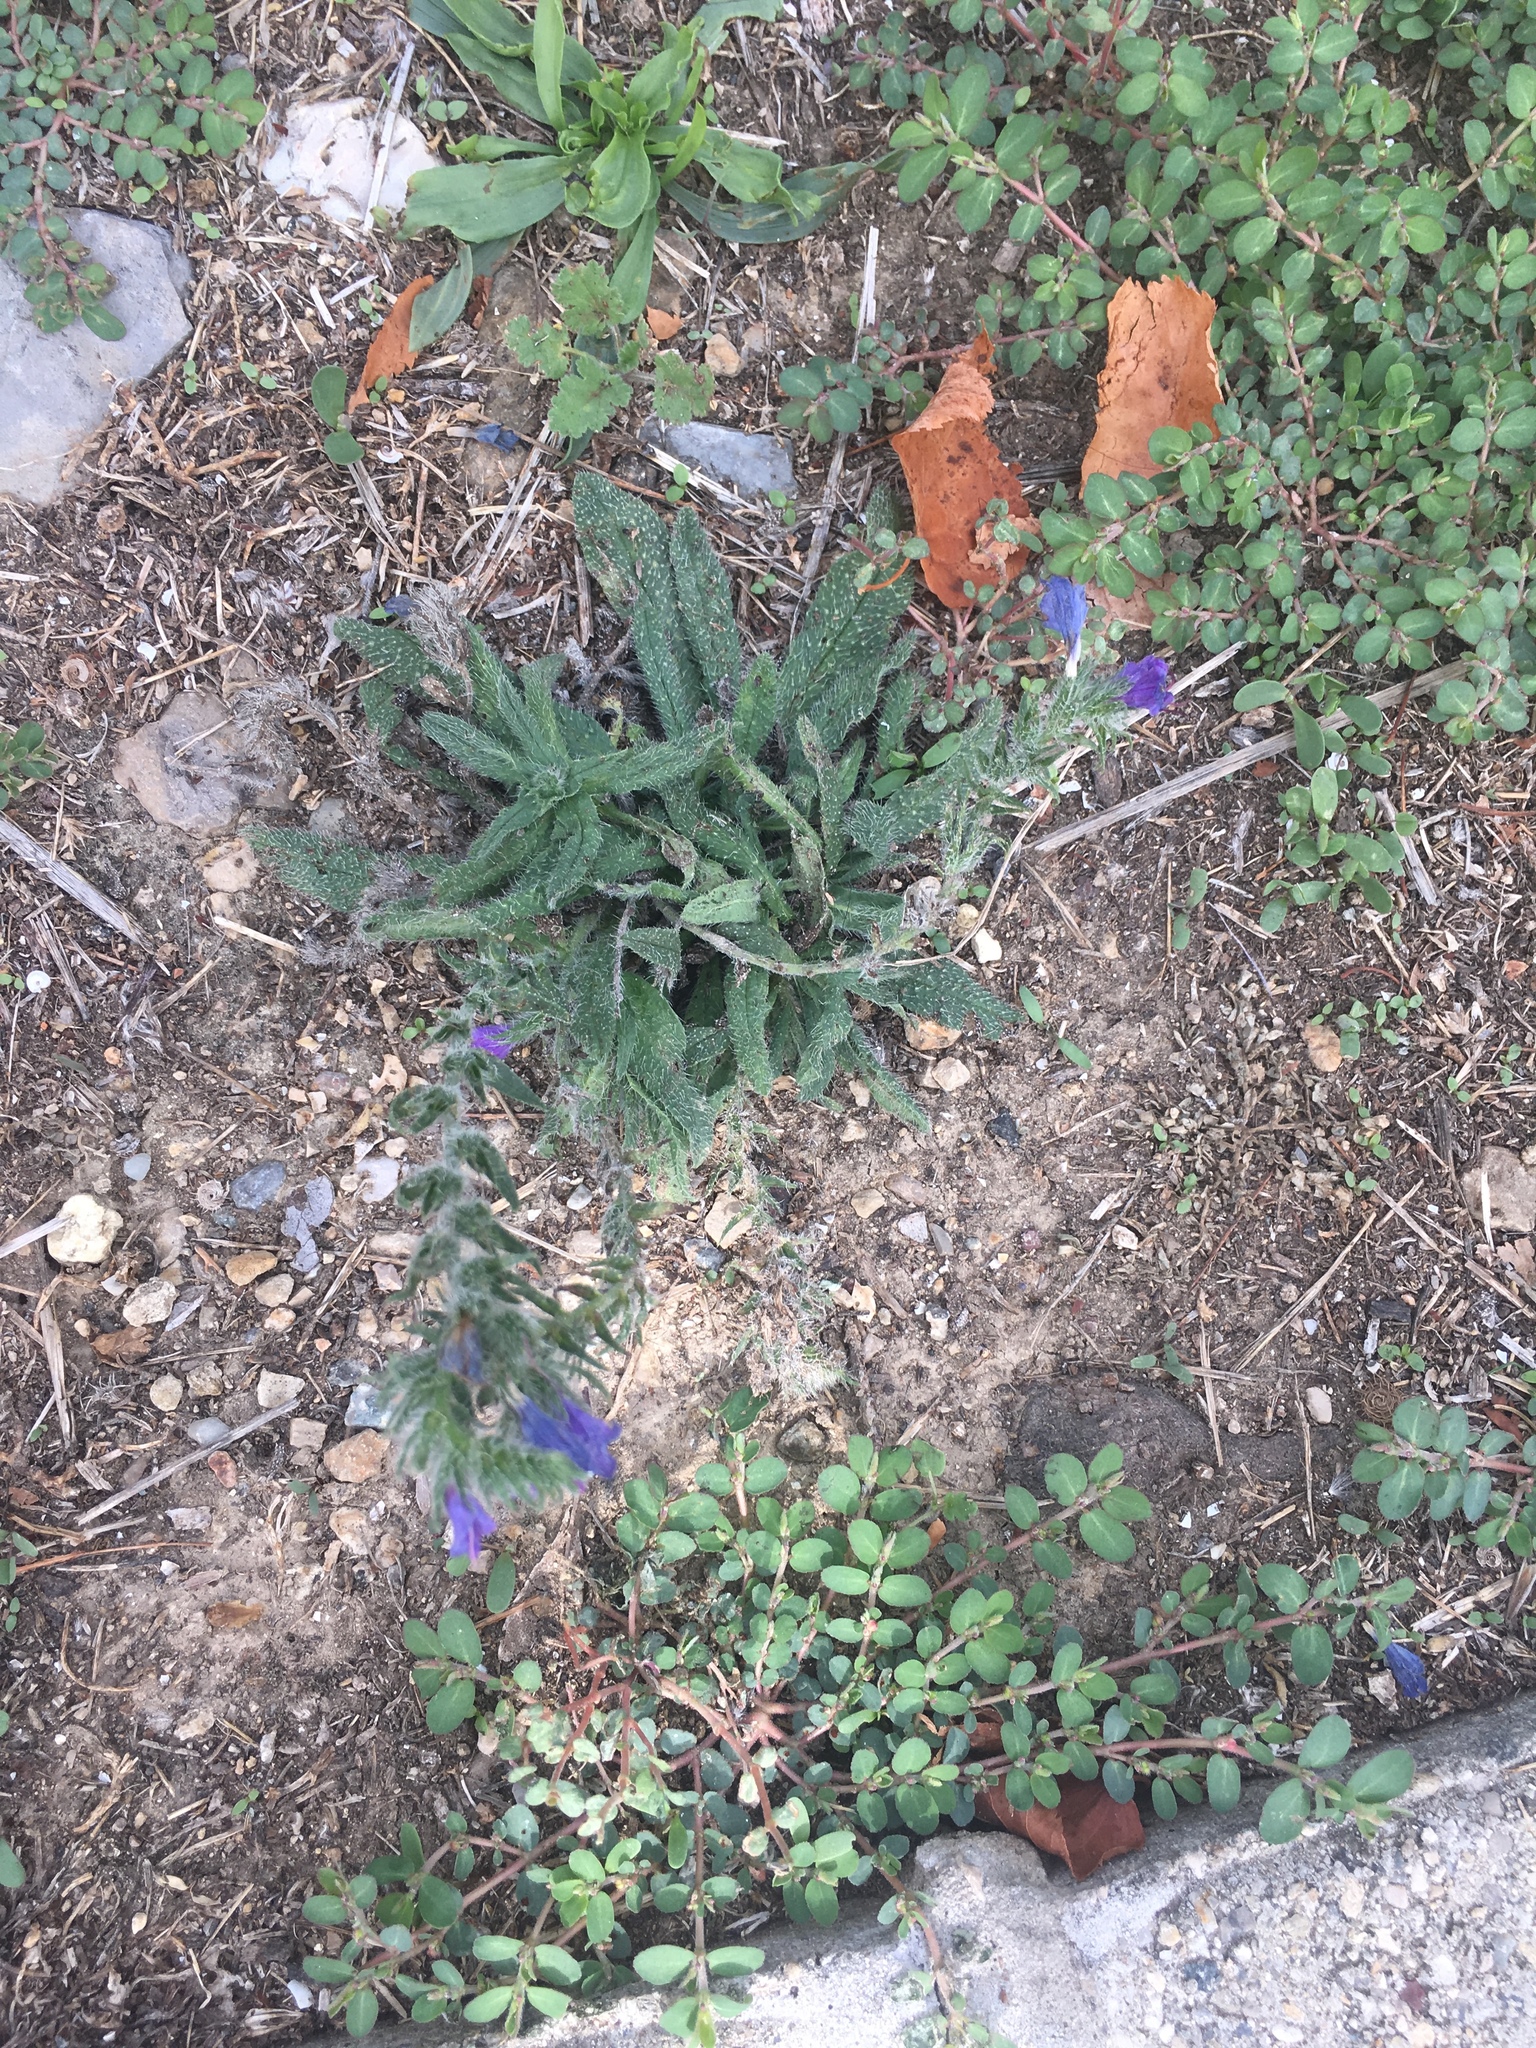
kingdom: Plantae
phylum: Tracheophyta
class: Magnoliopsida
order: Boraginales
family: Boraginaceae
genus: Echium
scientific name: Echium vulgare
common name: Common viper's bugloss
